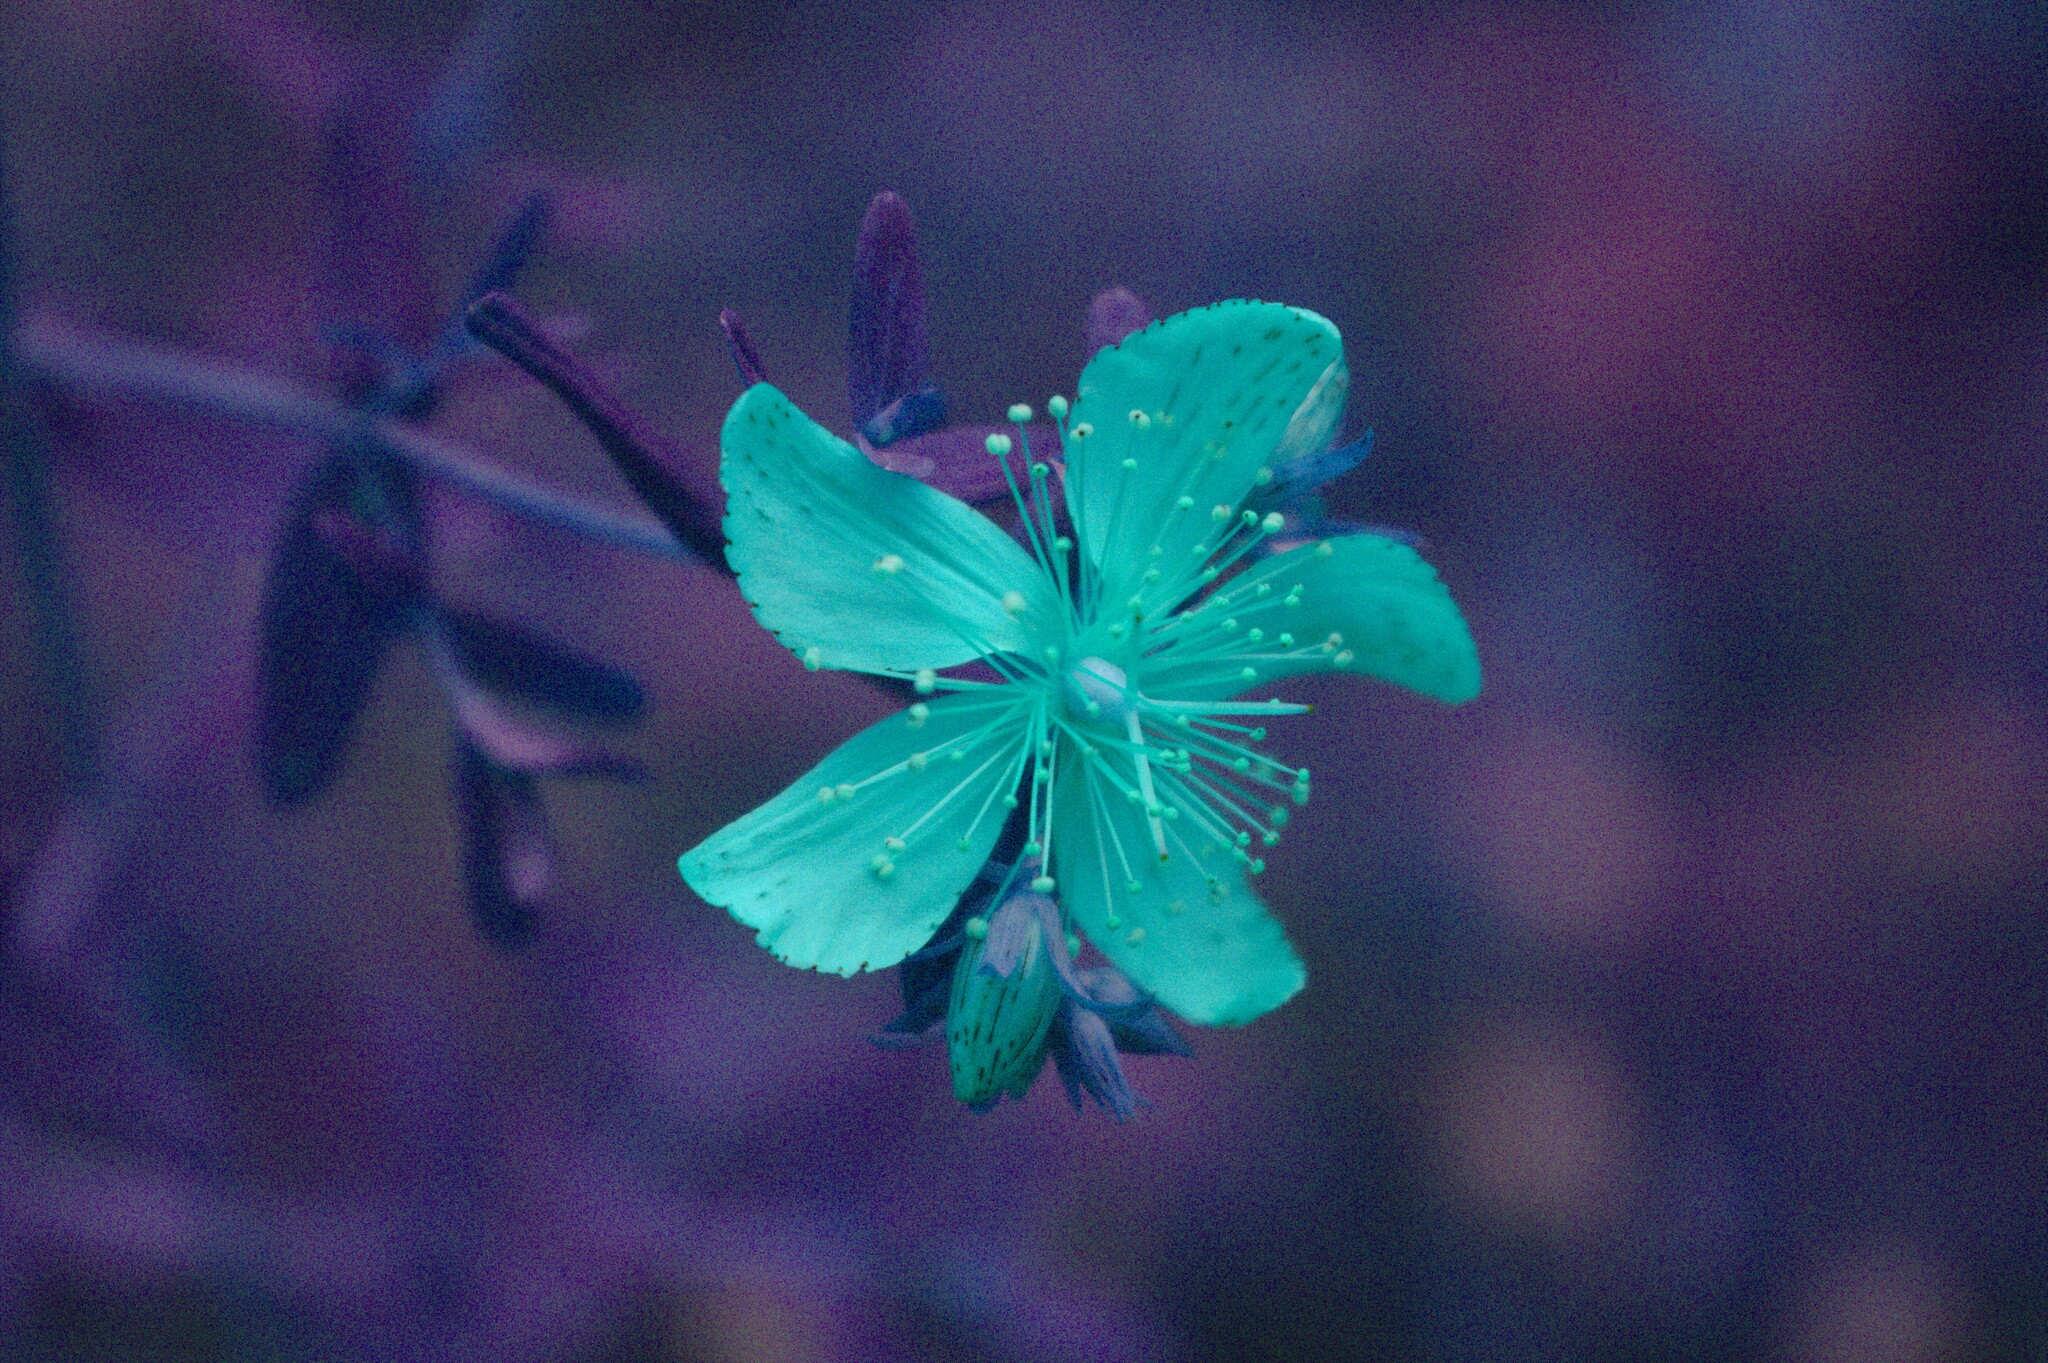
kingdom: Plantae
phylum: Tracheophyta
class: Magnoliopsida
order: Malpighiales
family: Hypericaceae
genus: Hypericum
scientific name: Hypericum perforatum
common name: Common st. johnswort
